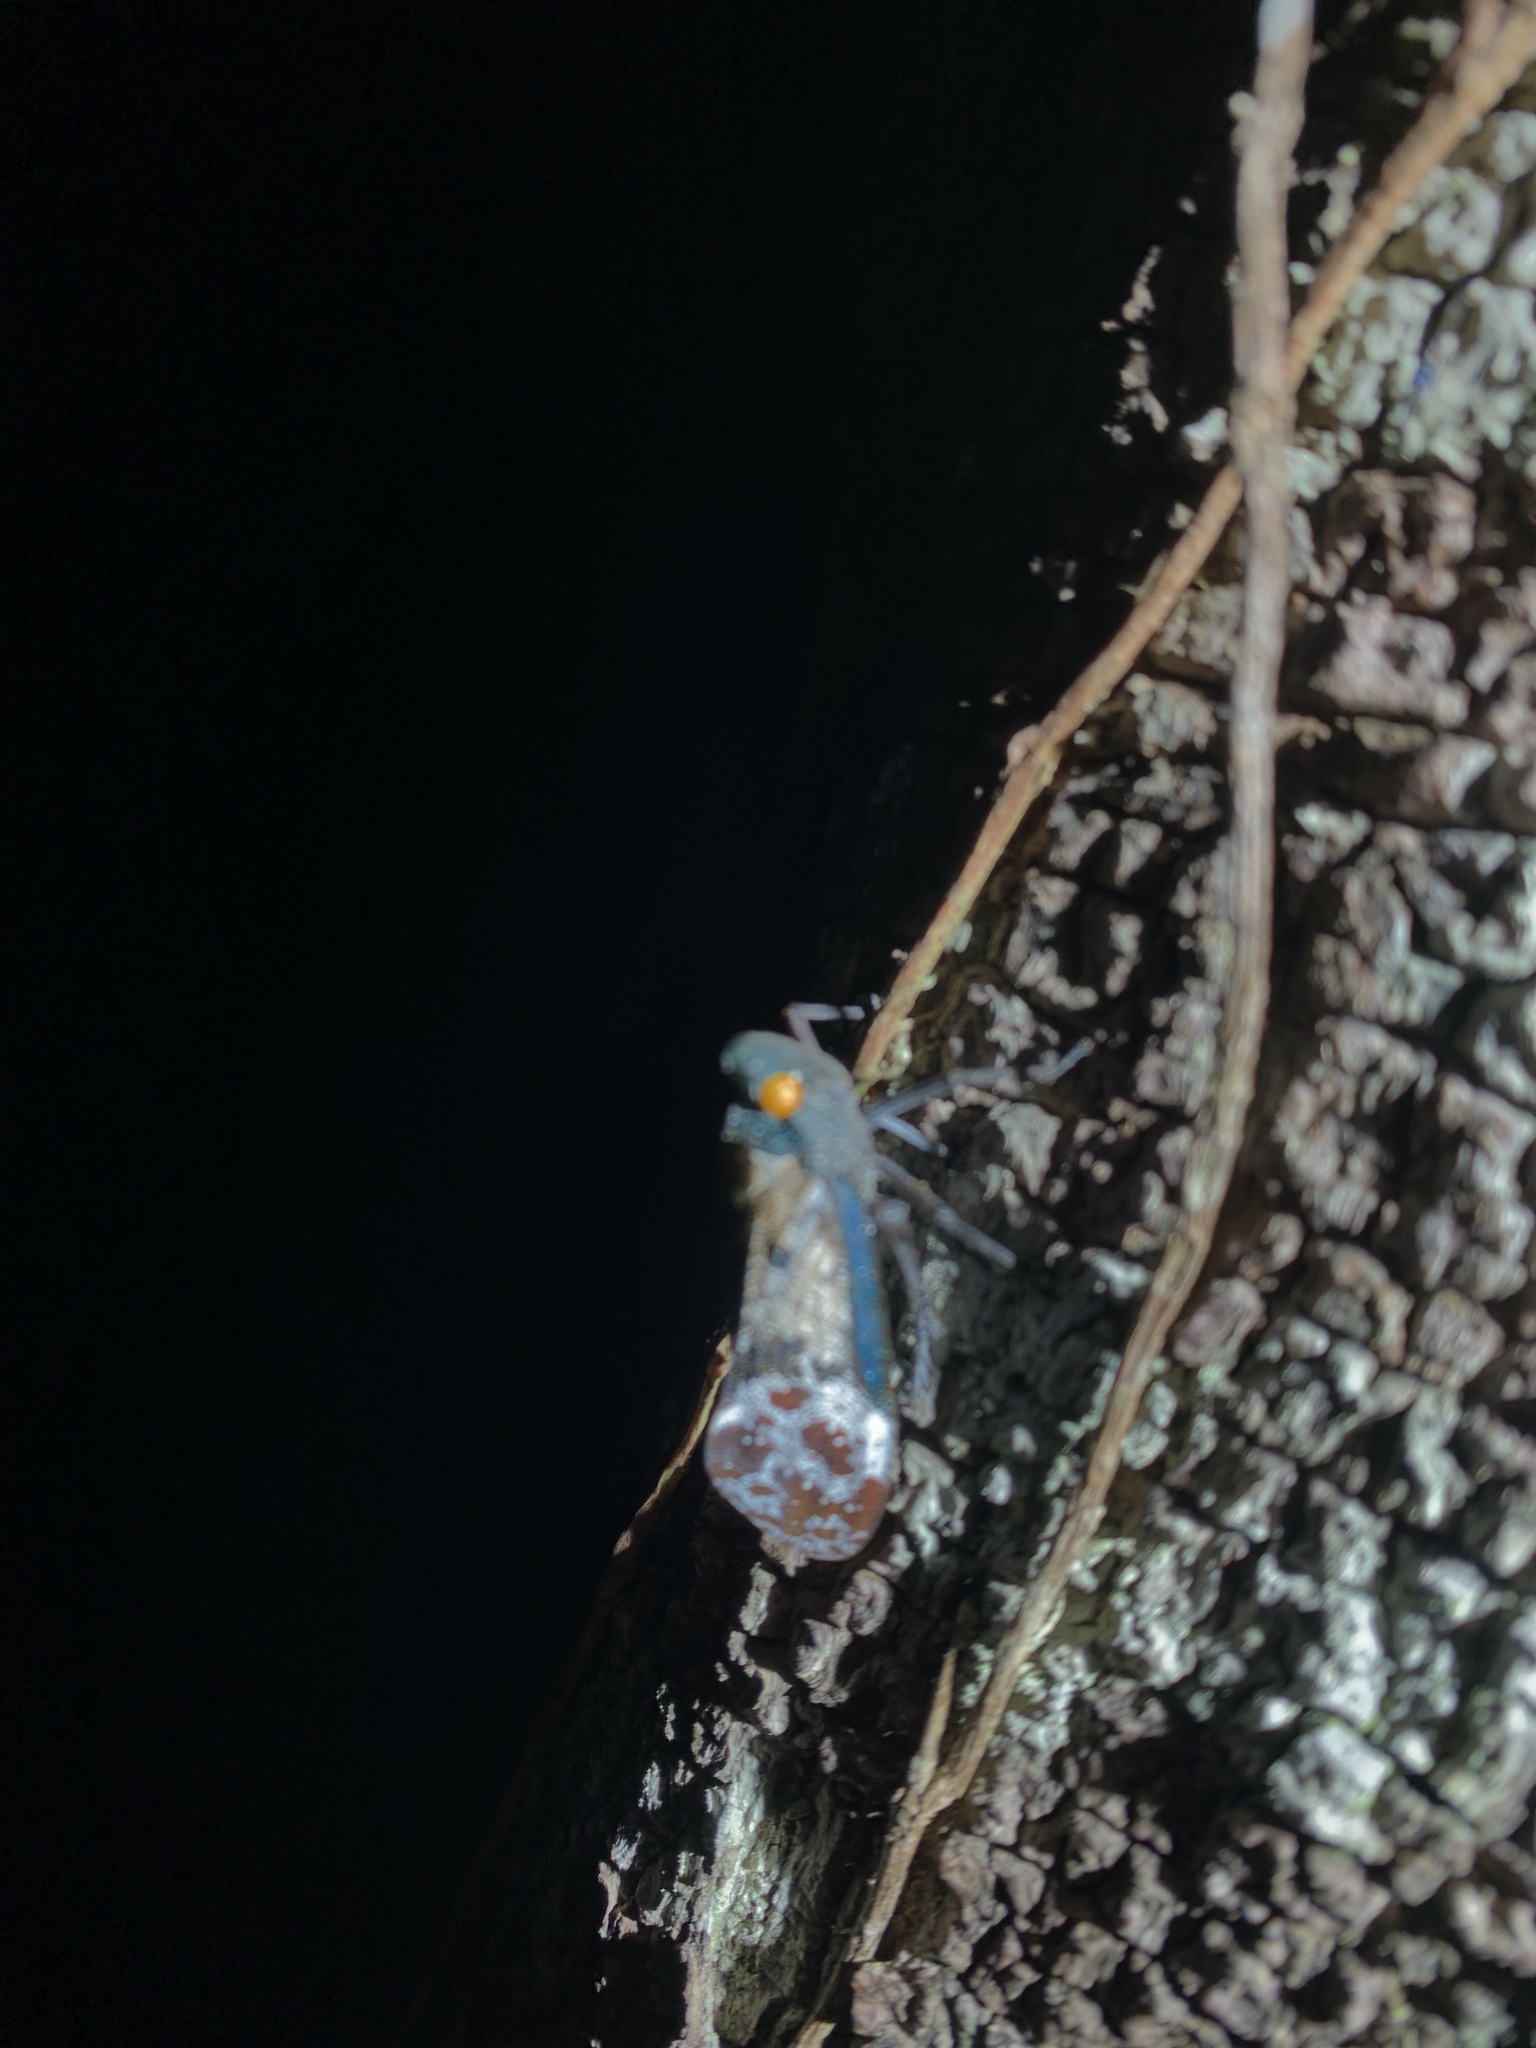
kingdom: Animalia
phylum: Arthropoda
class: Insecta
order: Hemiptera
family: Fulgoridae
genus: Penthicodes
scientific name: Penthicodes farinosa
